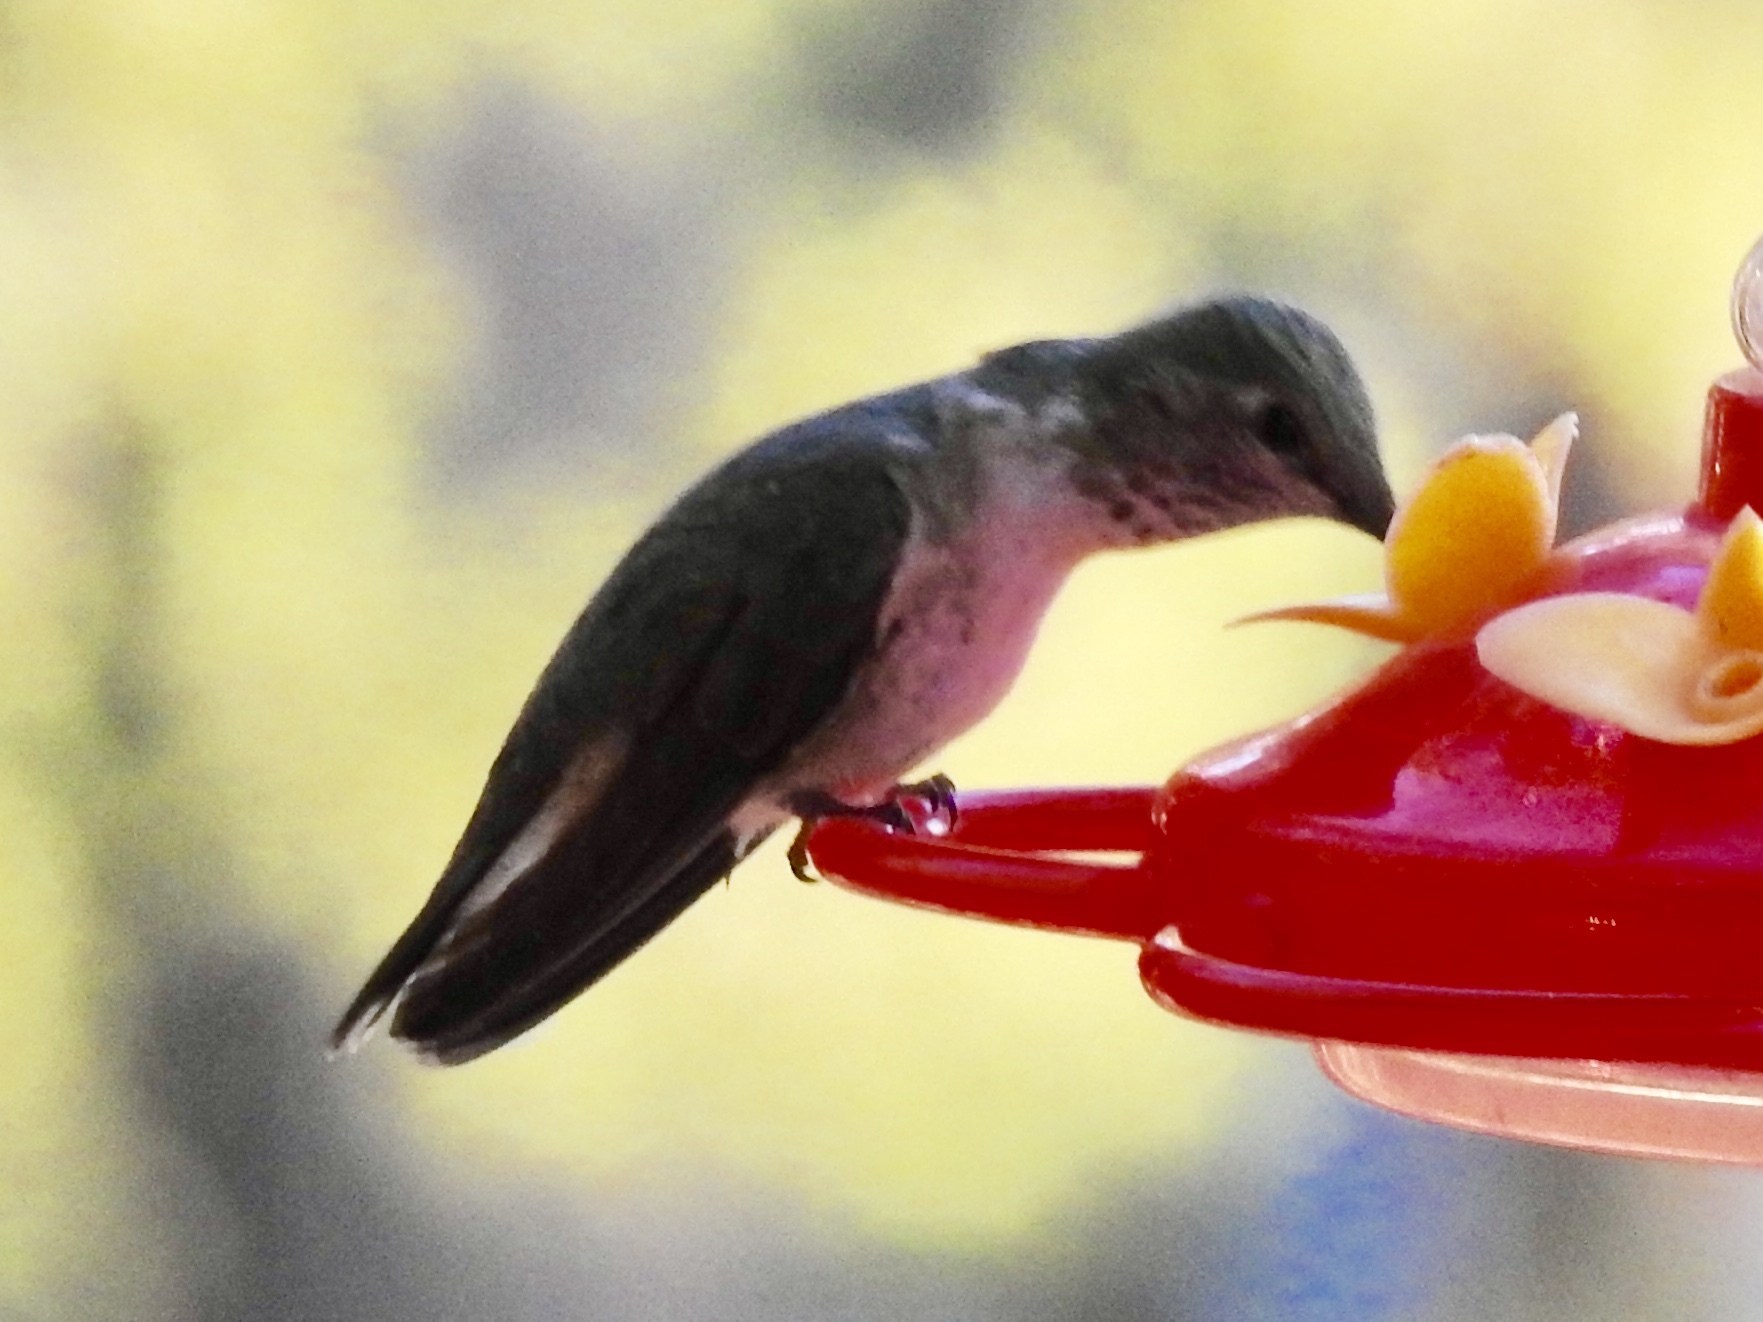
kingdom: Animalia
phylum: Chordata
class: Aves
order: Apodiformes
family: Trochilidae
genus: Selasphorus
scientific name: Selasphorus platycercus
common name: Broad-tailed hummingbird
